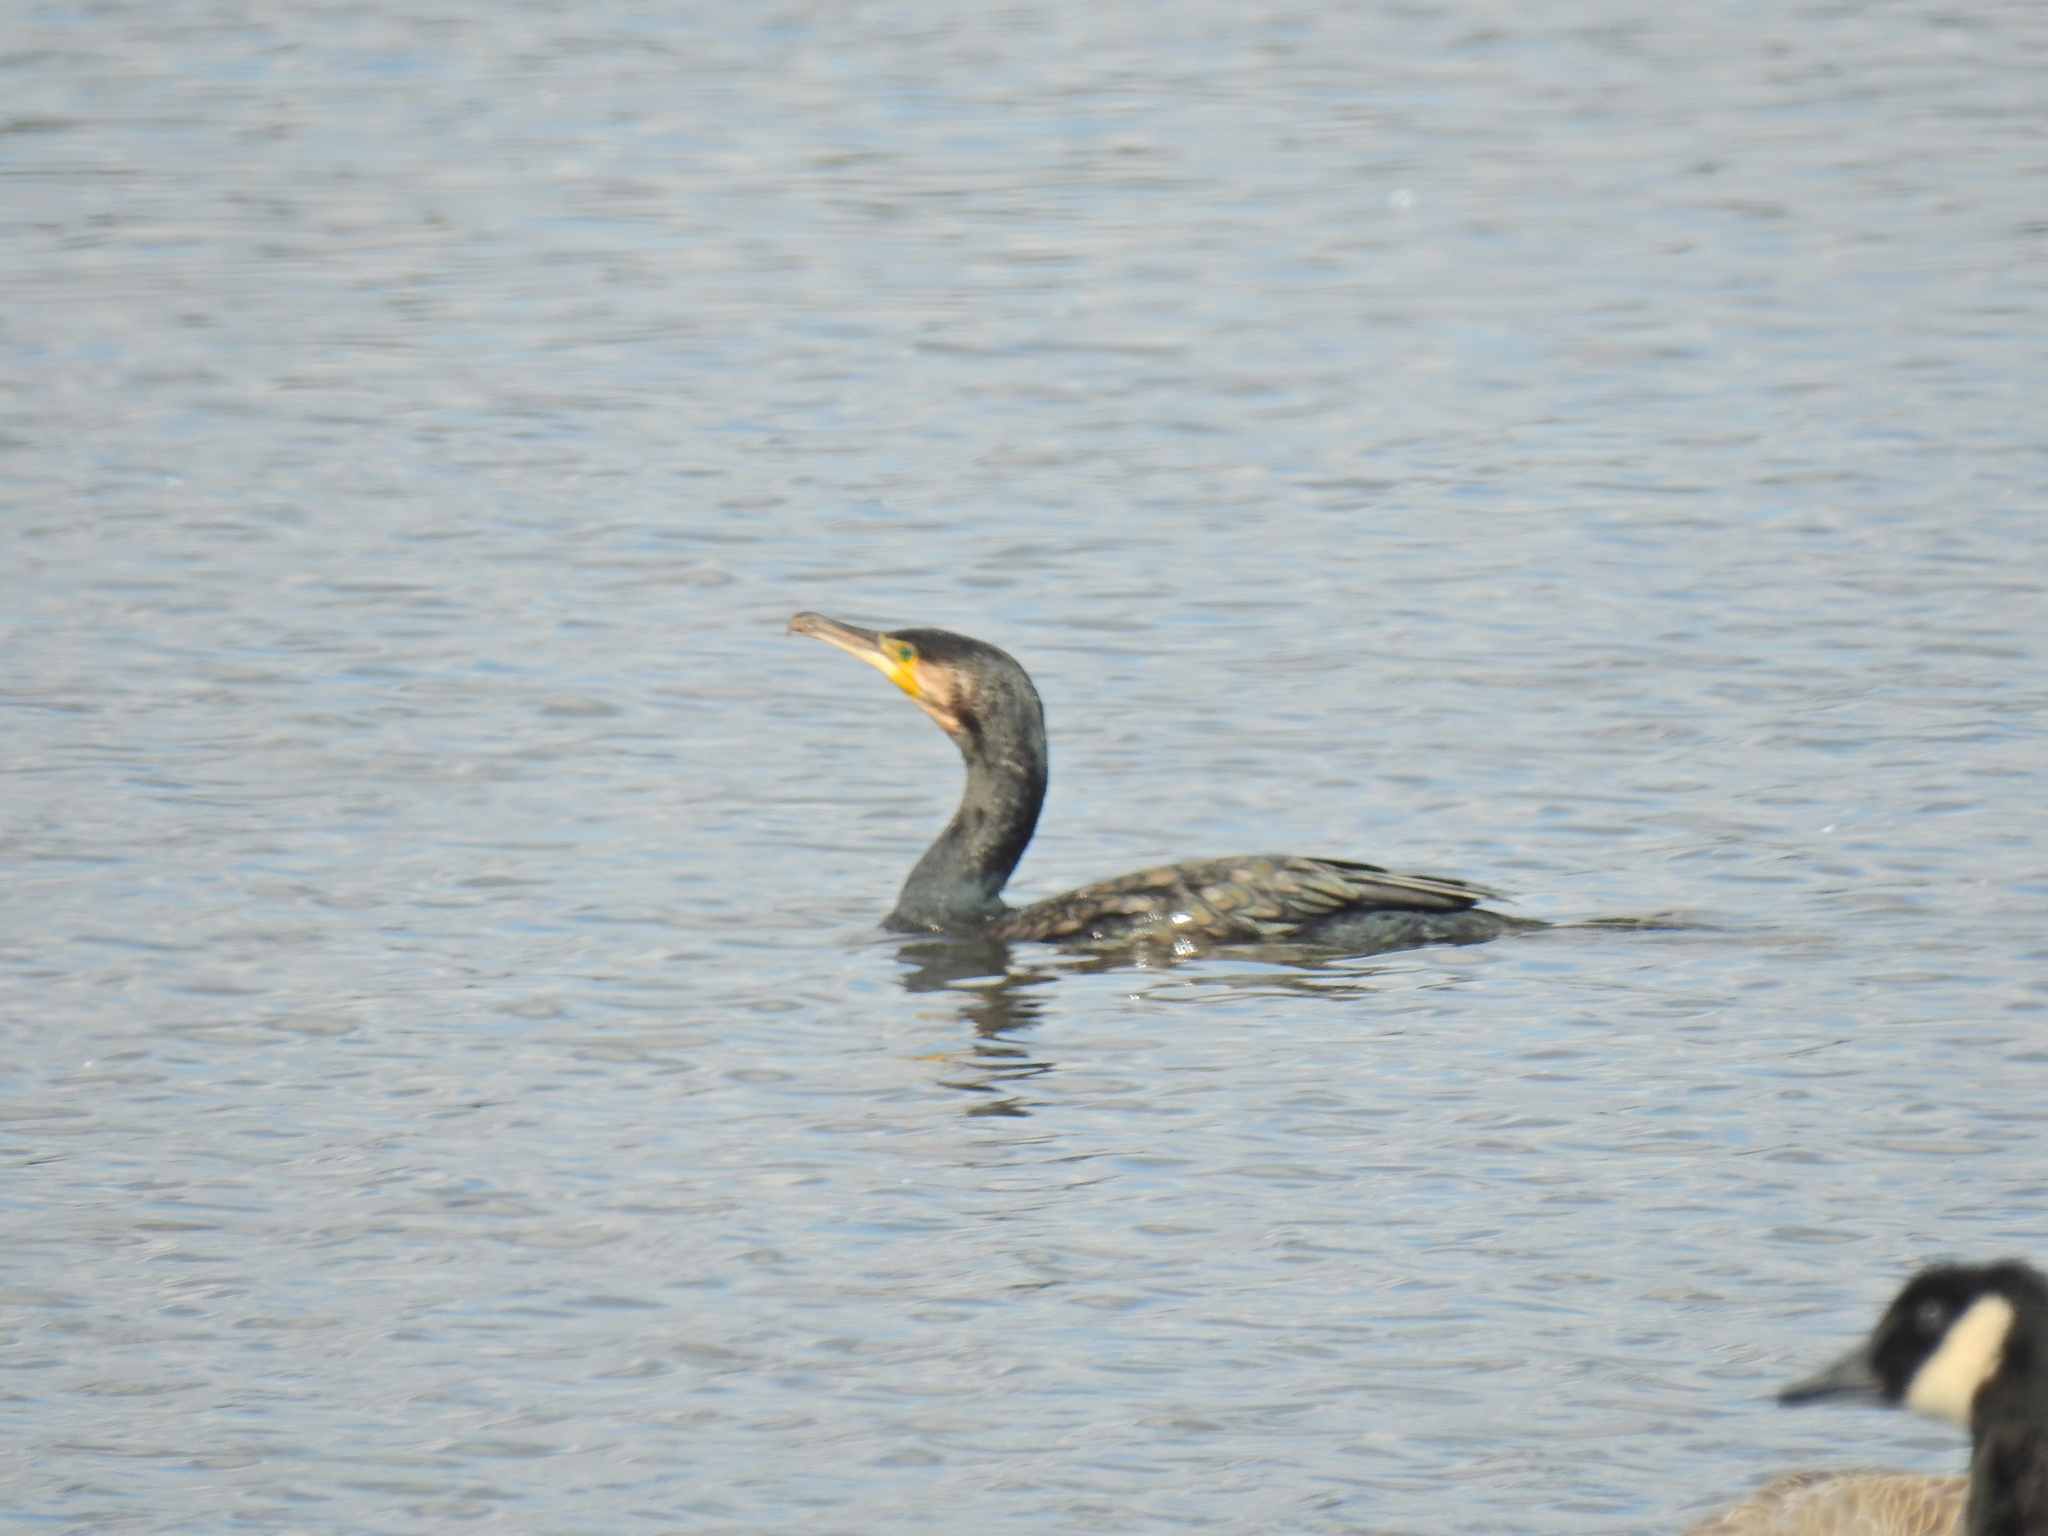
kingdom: Animalia
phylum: Chordata
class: Aves
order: Suliformes
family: Phalacrocoracidae
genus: Phalacrocorax
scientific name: Phalacrocorax carbo
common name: Great cormorant
